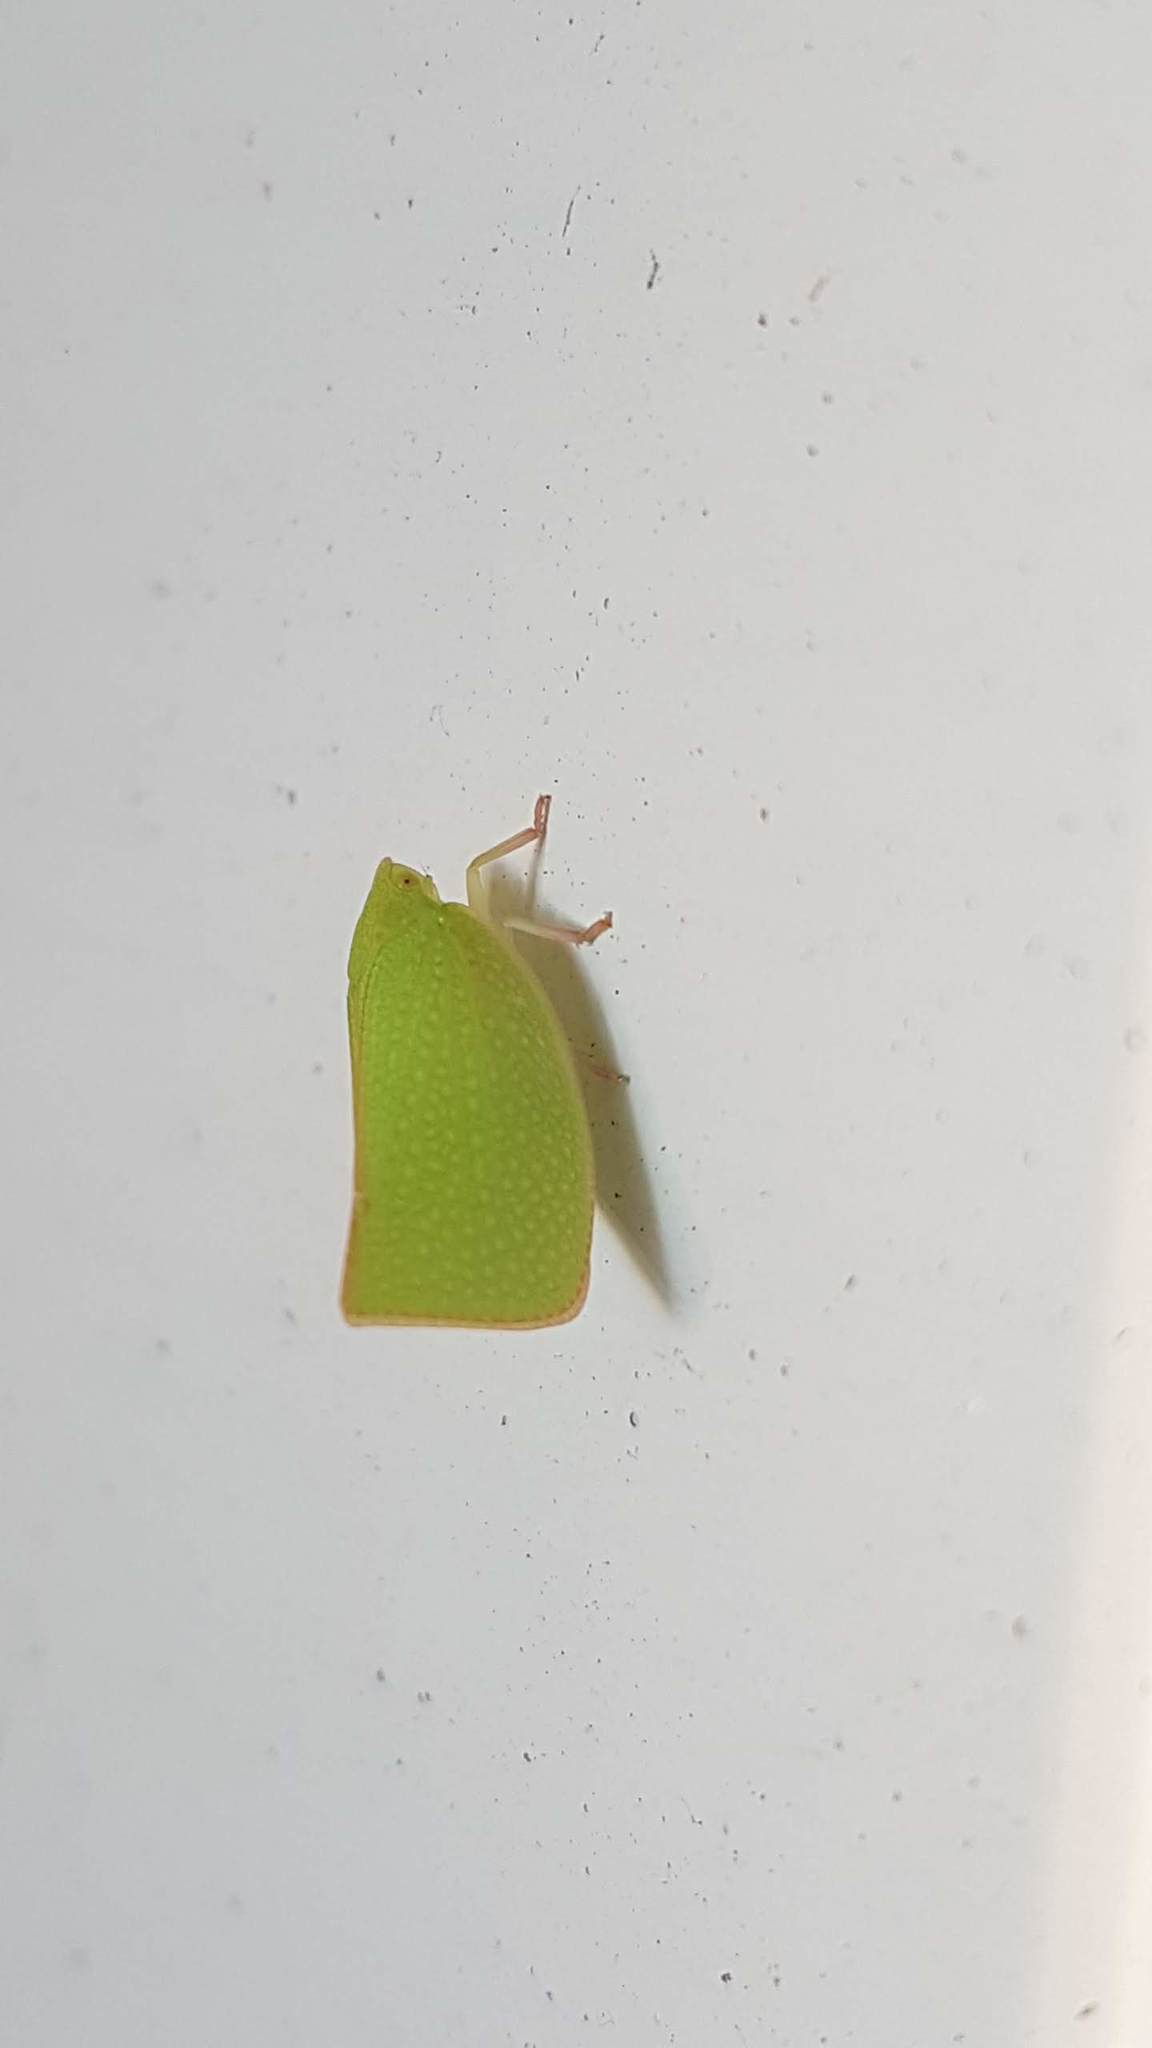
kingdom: Animalia
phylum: Arthropoda
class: Insecta
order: Hemiptera
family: Flatidae
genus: Siphanta
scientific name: Siphanta acuta
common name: Torpedo bug
